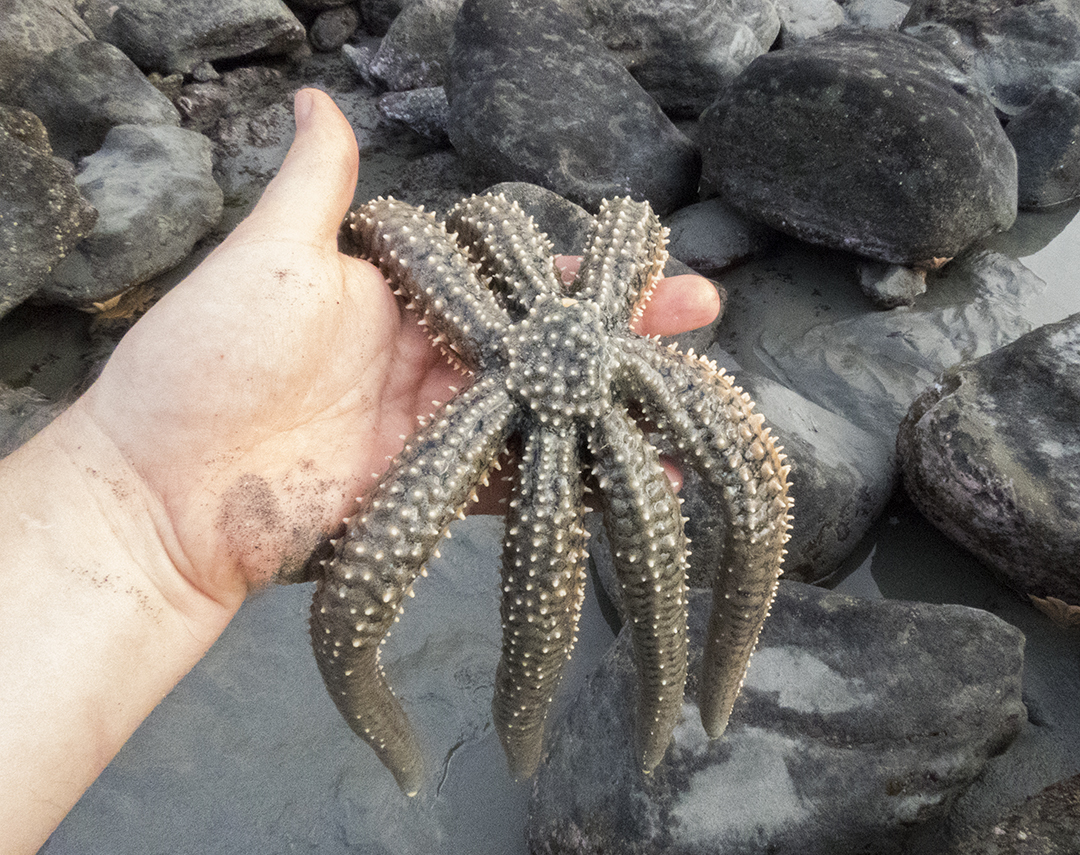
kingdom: Animalia
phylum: Echinodermata
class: Asteroidea
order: Forcipulatida
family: Asteriidae
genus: Astrostole
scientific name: Astrostole scabra
